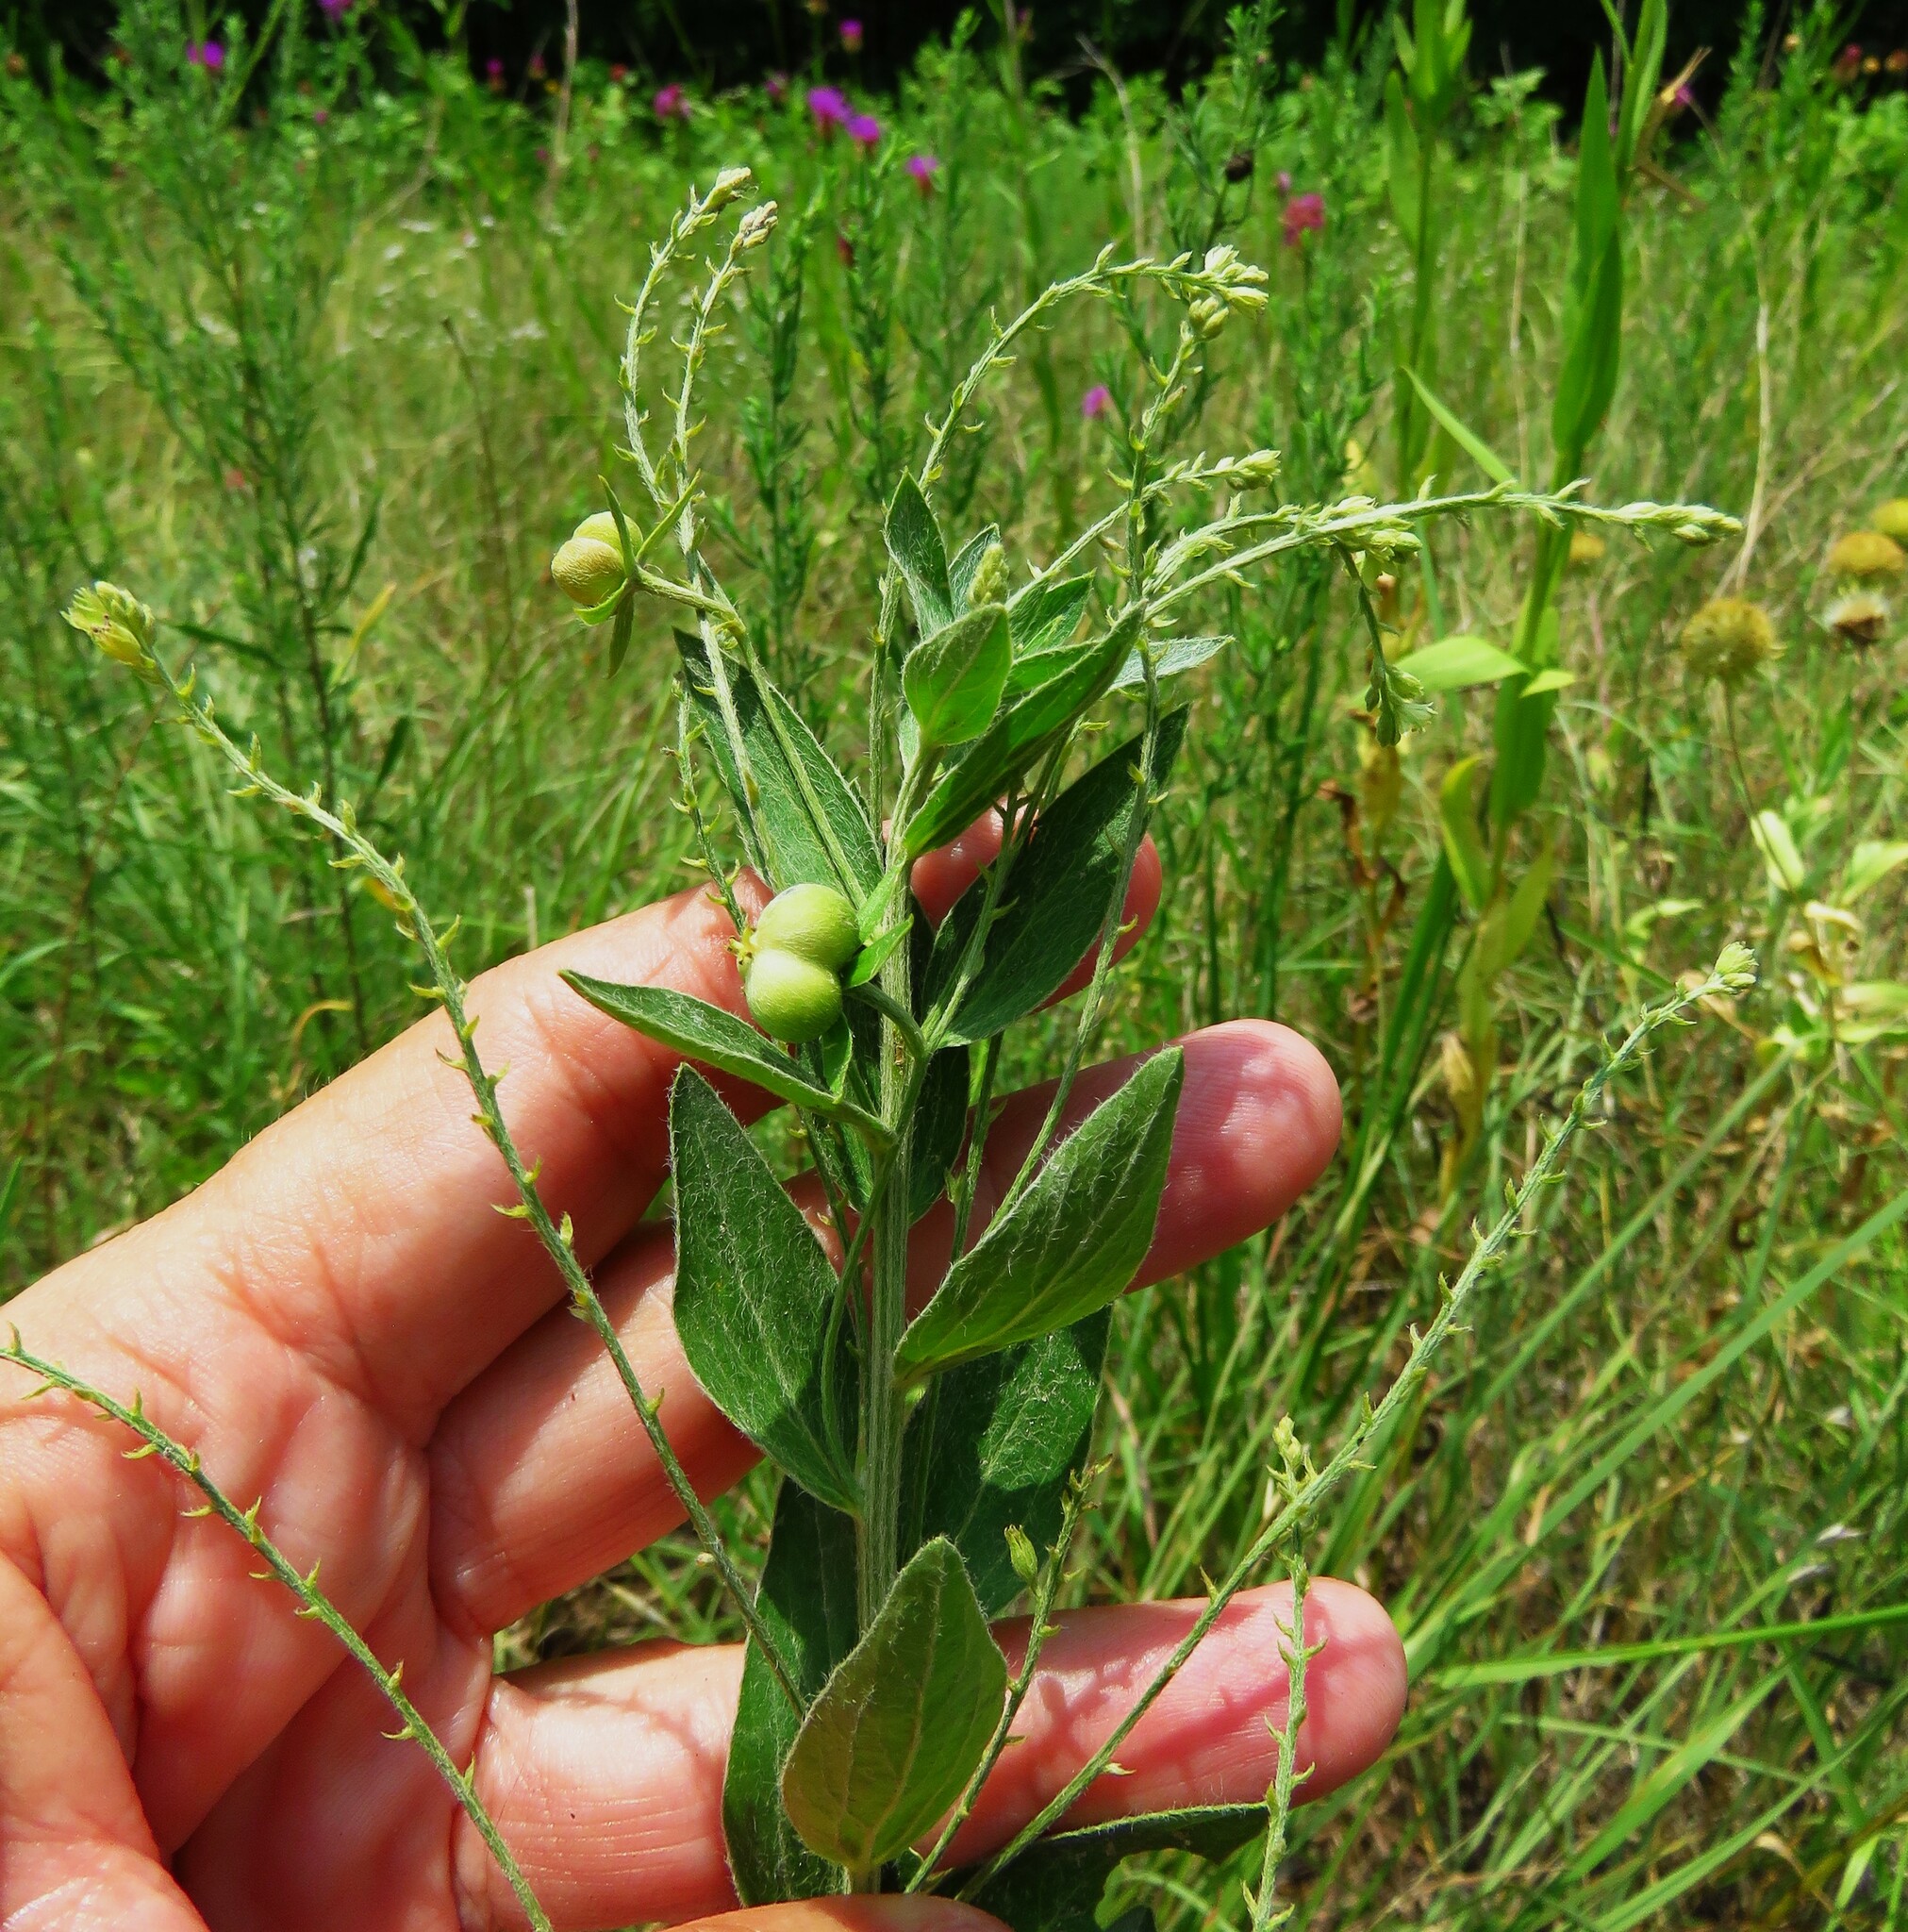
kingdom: Plantae
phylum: Tracheophyta
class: Magnoliopsida
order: Malpighiales
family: Euphorbiaceae
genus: Ditaxis
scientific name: Ditaxis mercurialina
